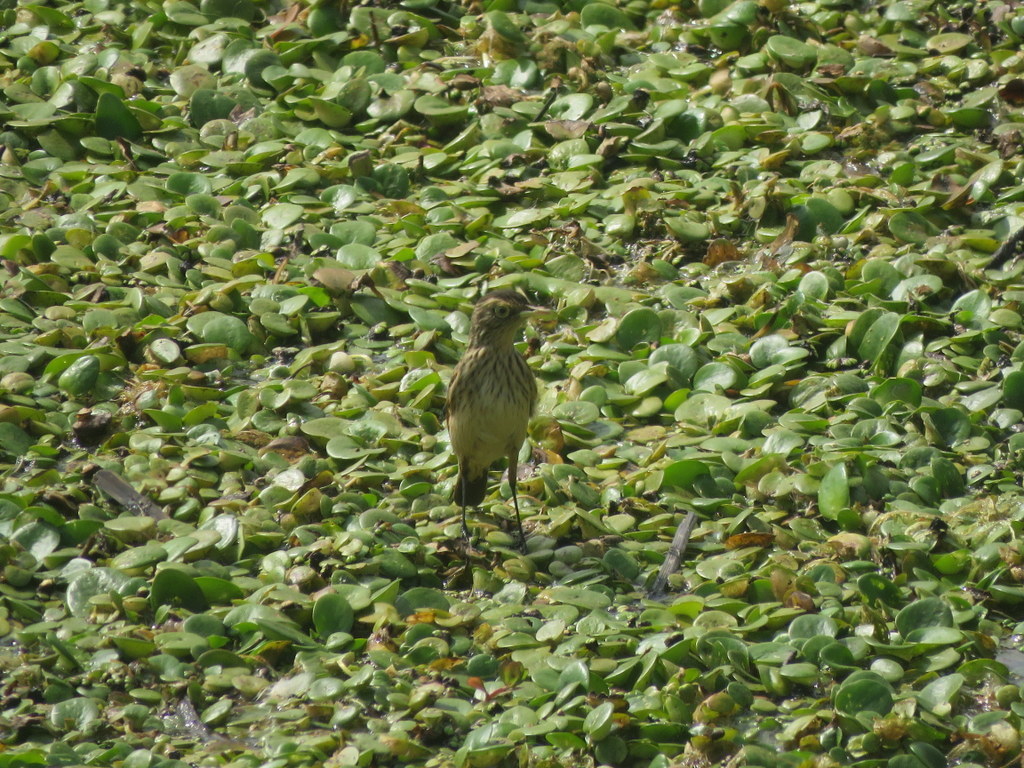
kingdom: Animalia
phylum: Chordata
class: Aves
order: Passeriformes
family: Tyrannidae
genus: Hymenops
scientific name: Hymenops perspicillatus
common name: Spectacled tyrant
